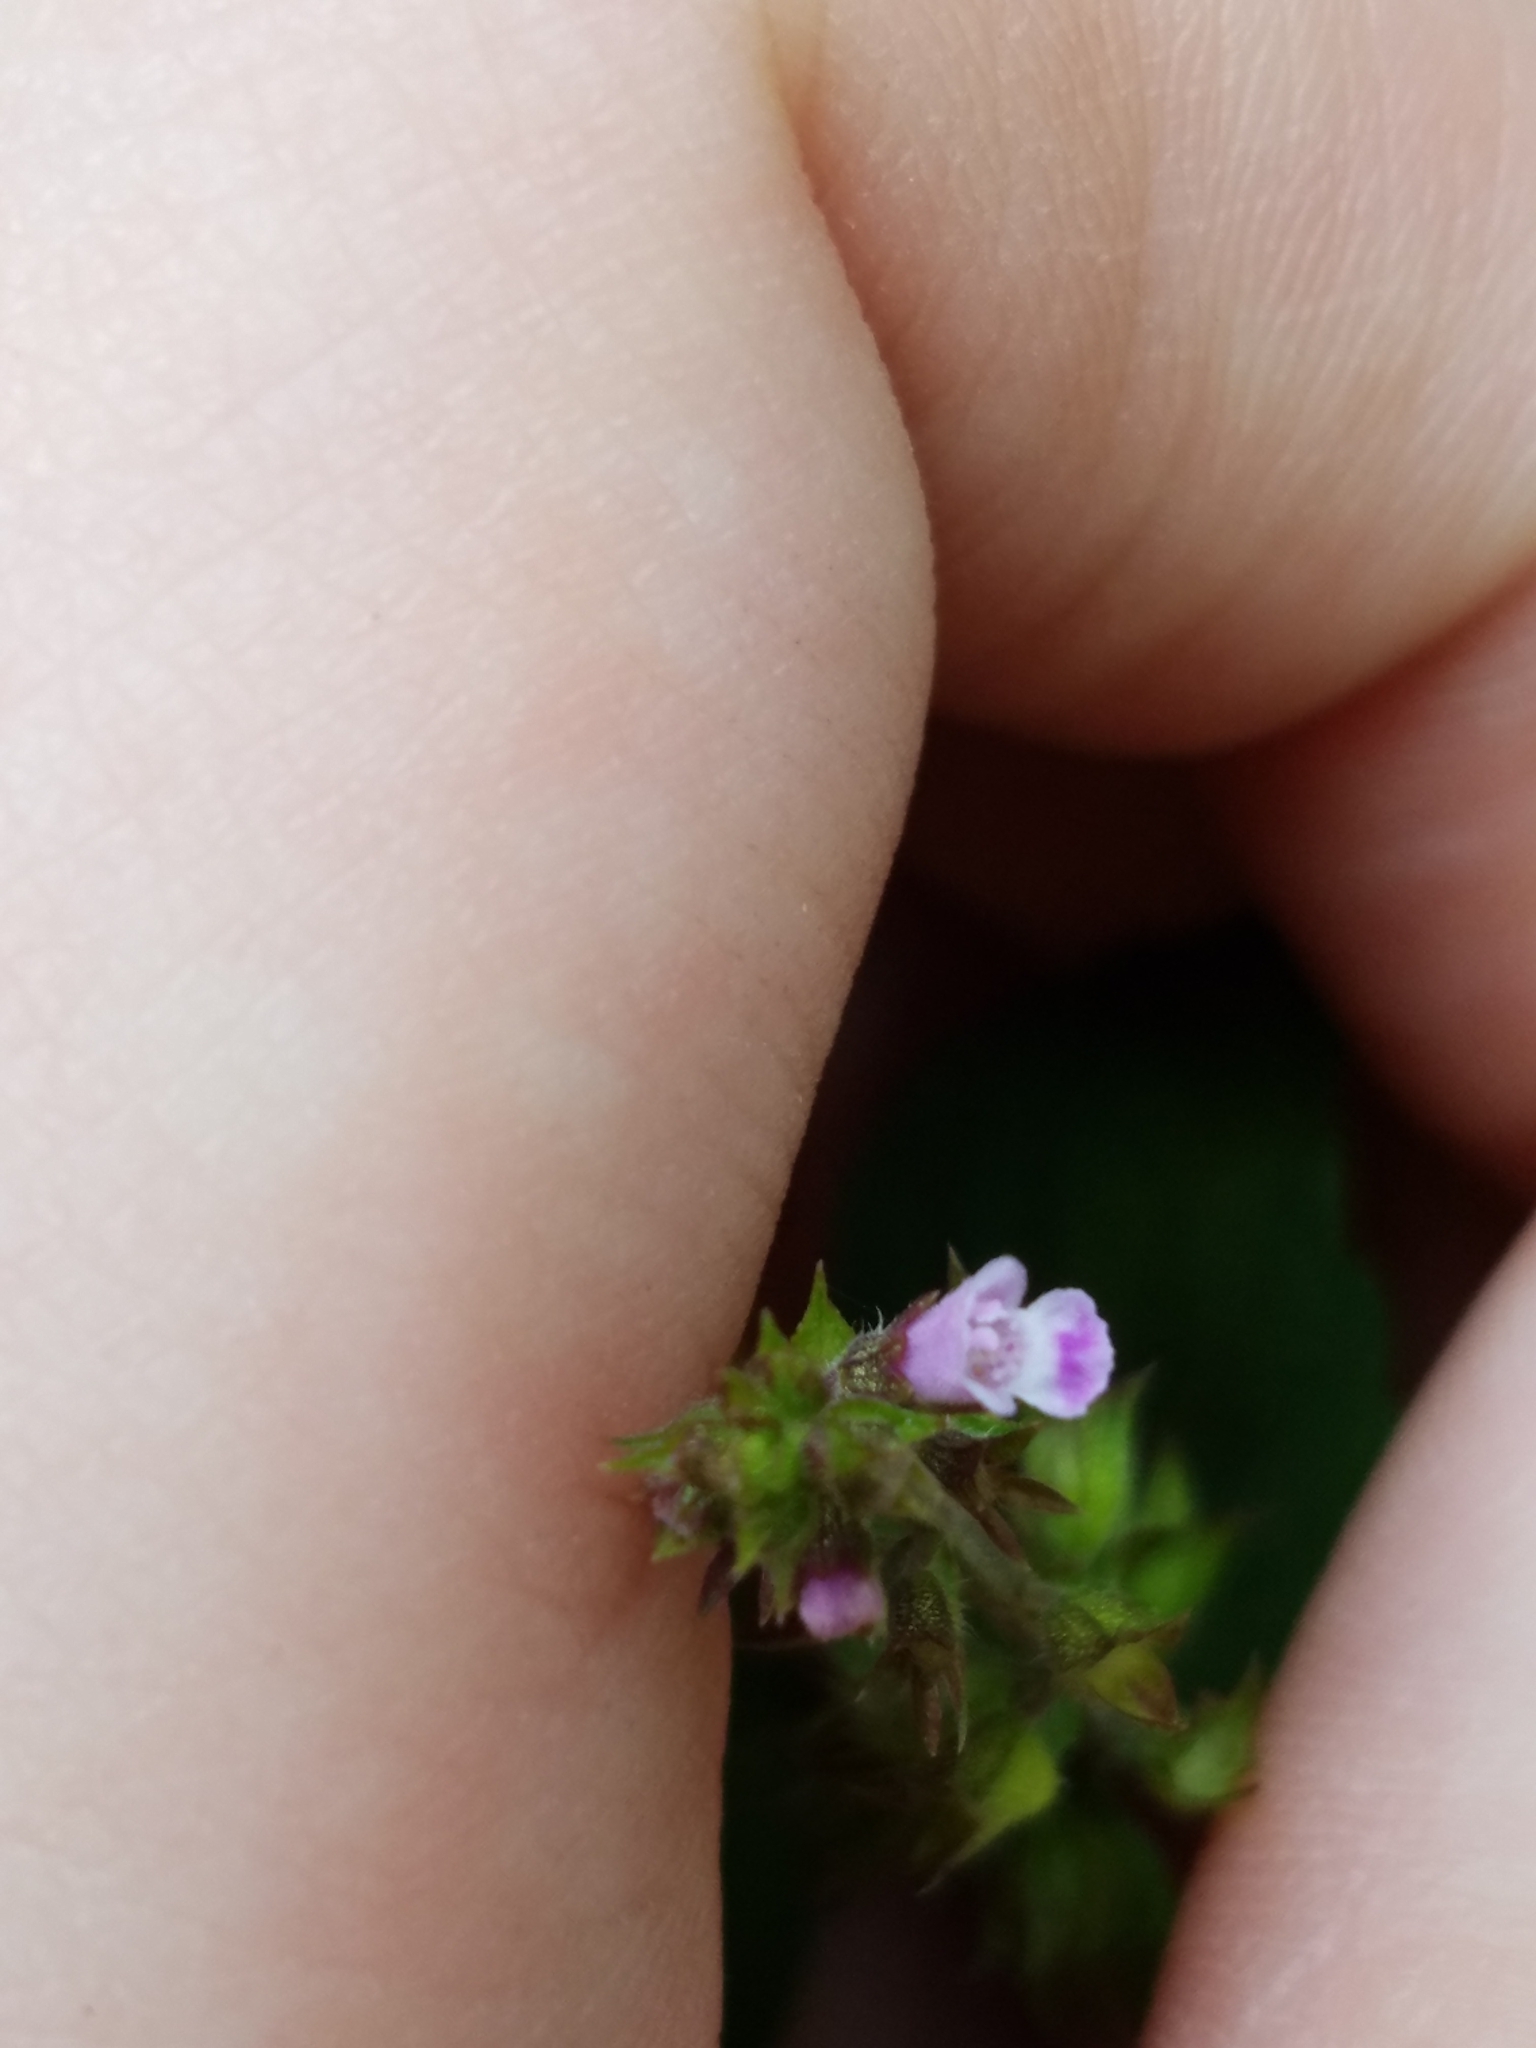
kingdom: Plantae
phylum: Tracheophyta
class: Magnoliopsida
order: Lamiales
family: Lamiaceae
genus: Mosla
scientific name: Mosla dianthera
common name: Miniature beefsteakplant
